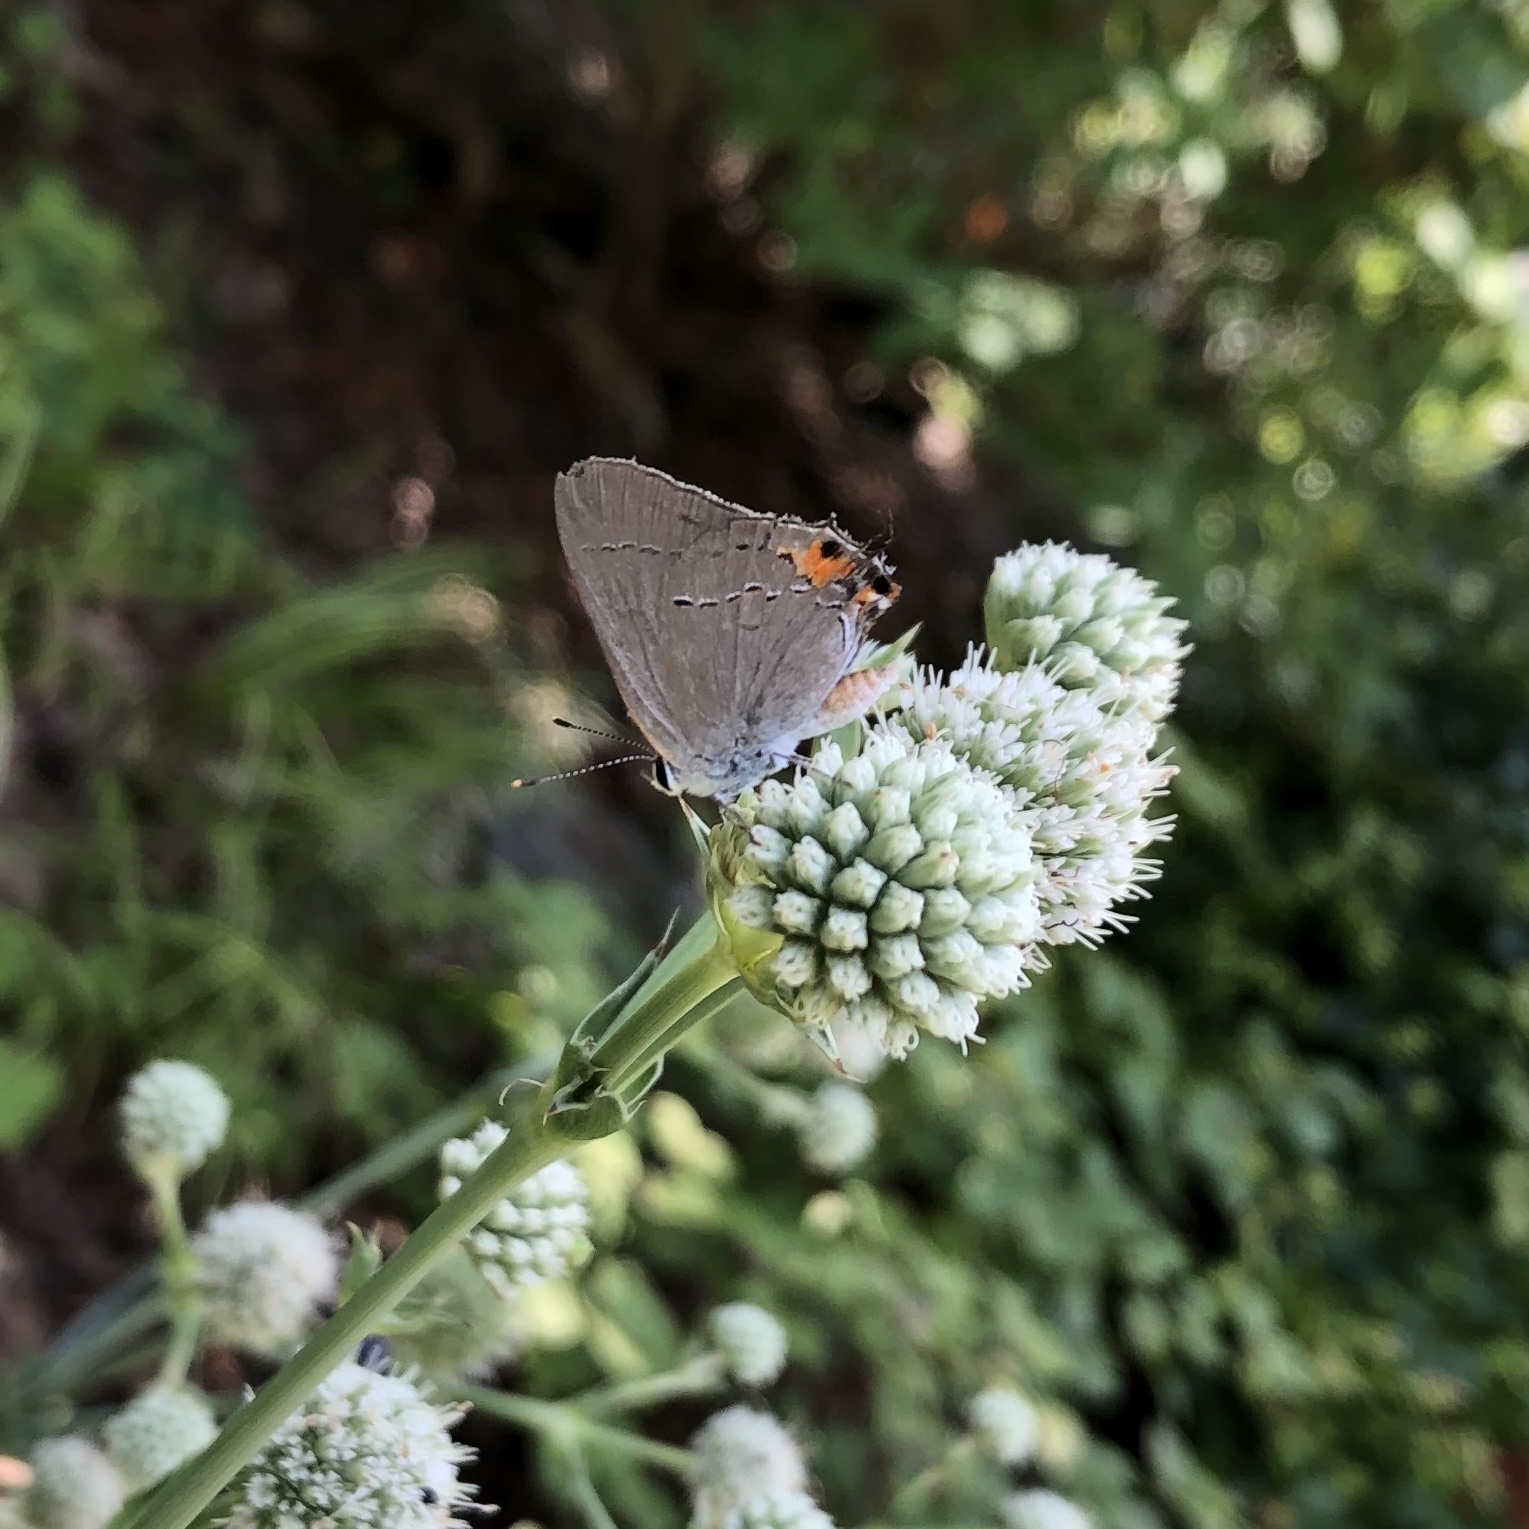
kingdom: Animalia
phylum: Arthropoda
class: Insecta
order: Lepidoptera
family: Lycaenidae
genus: Strymon
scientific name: Strymon melinus
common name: Gray hairstreak
